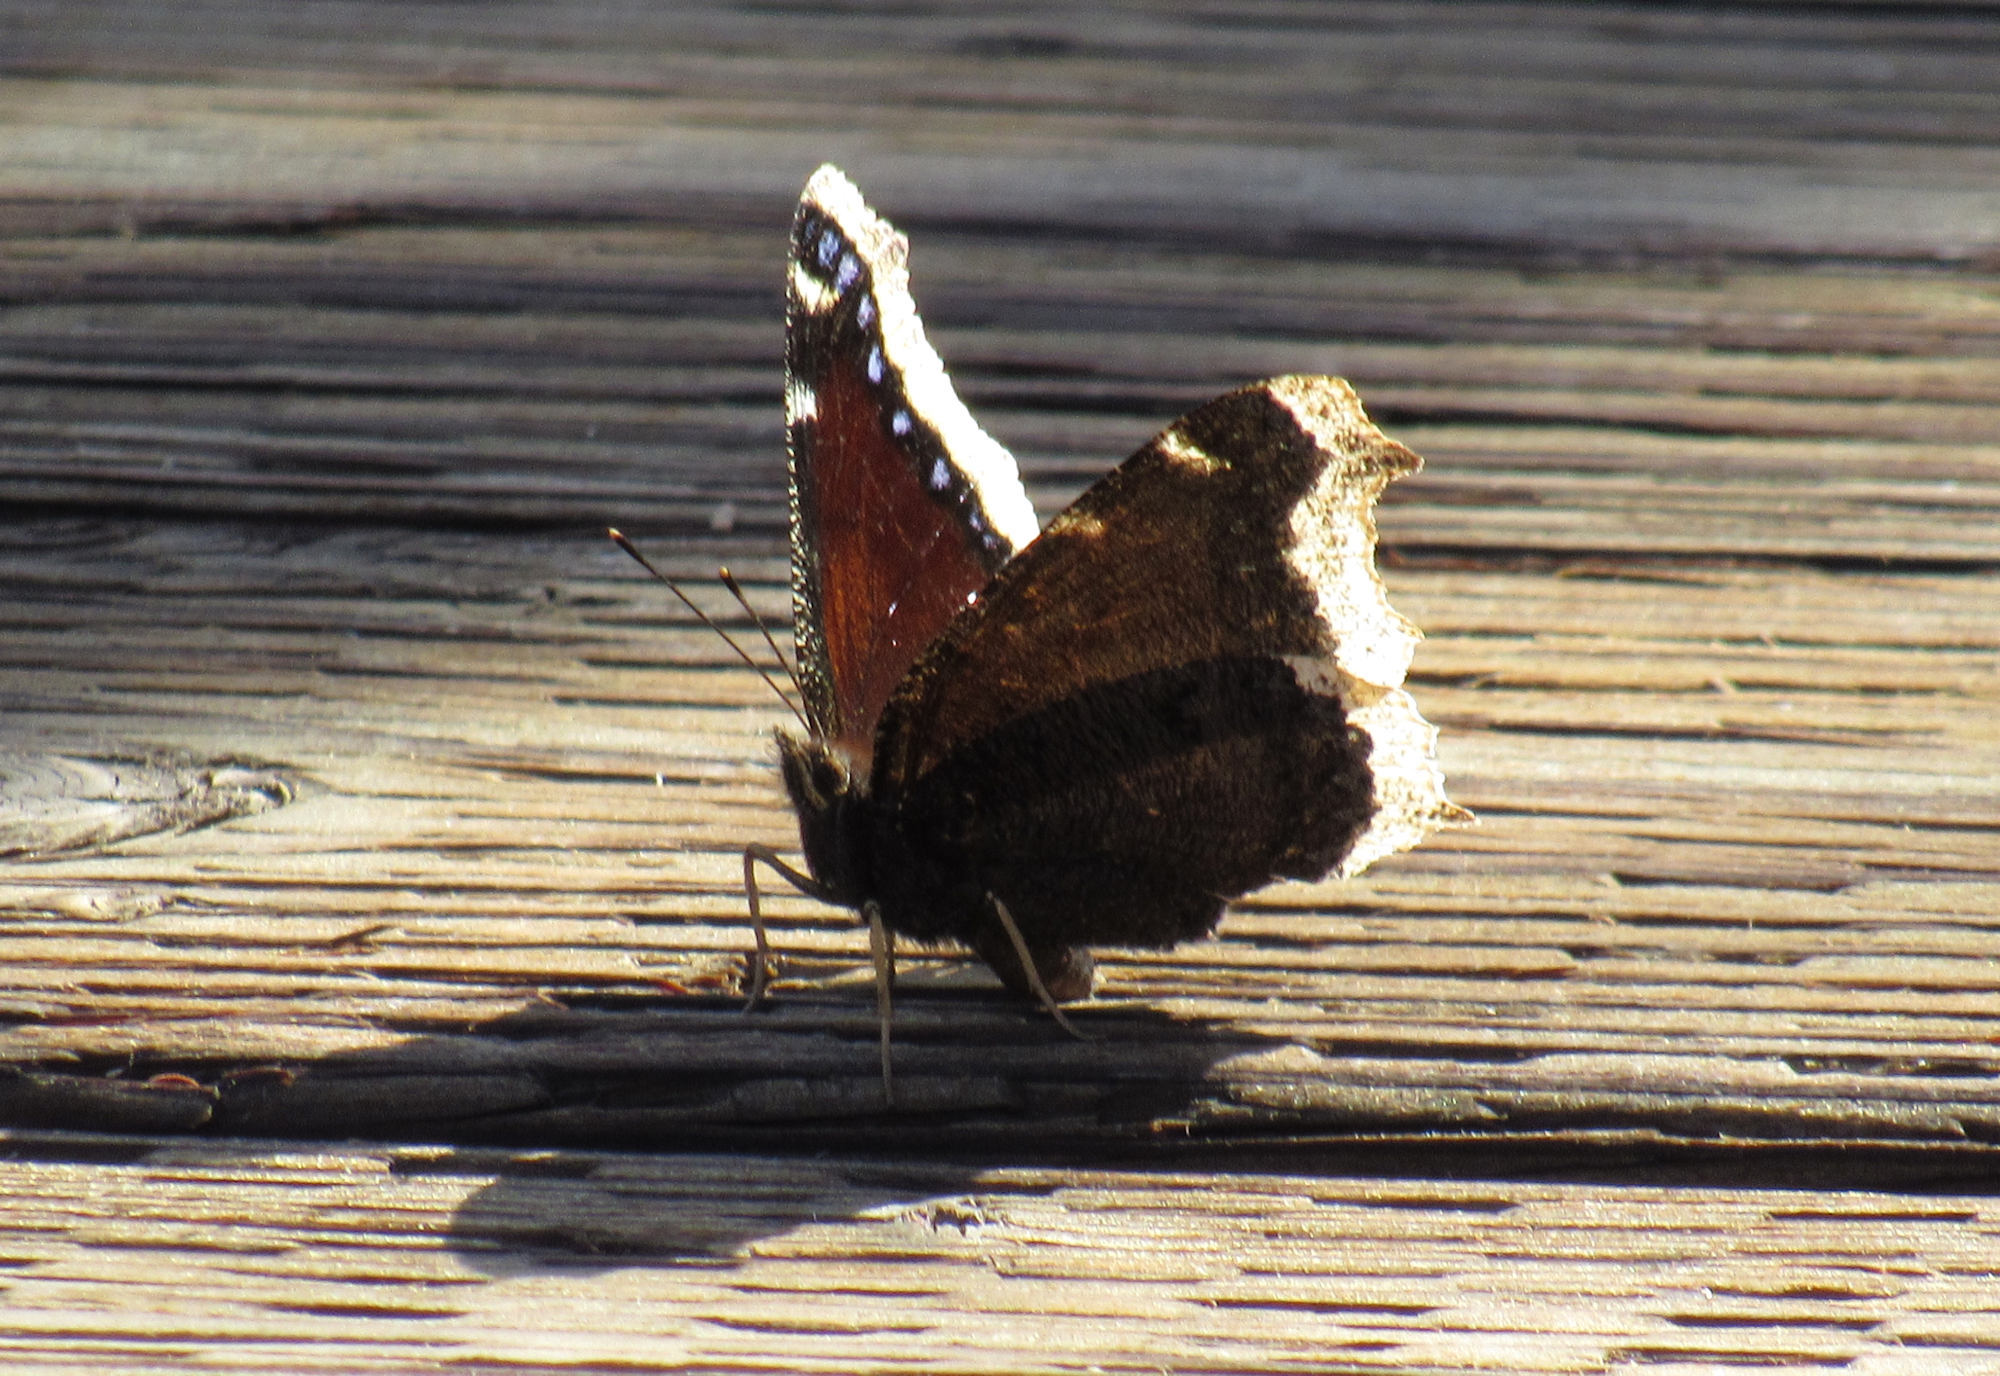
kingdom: Animalia
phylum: Arthropoda
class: Insecta
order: Lepidoptera
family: Nymphalidae
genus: Nymphalis
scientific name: Nymphalis antiopa
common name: Camberwell beauty
